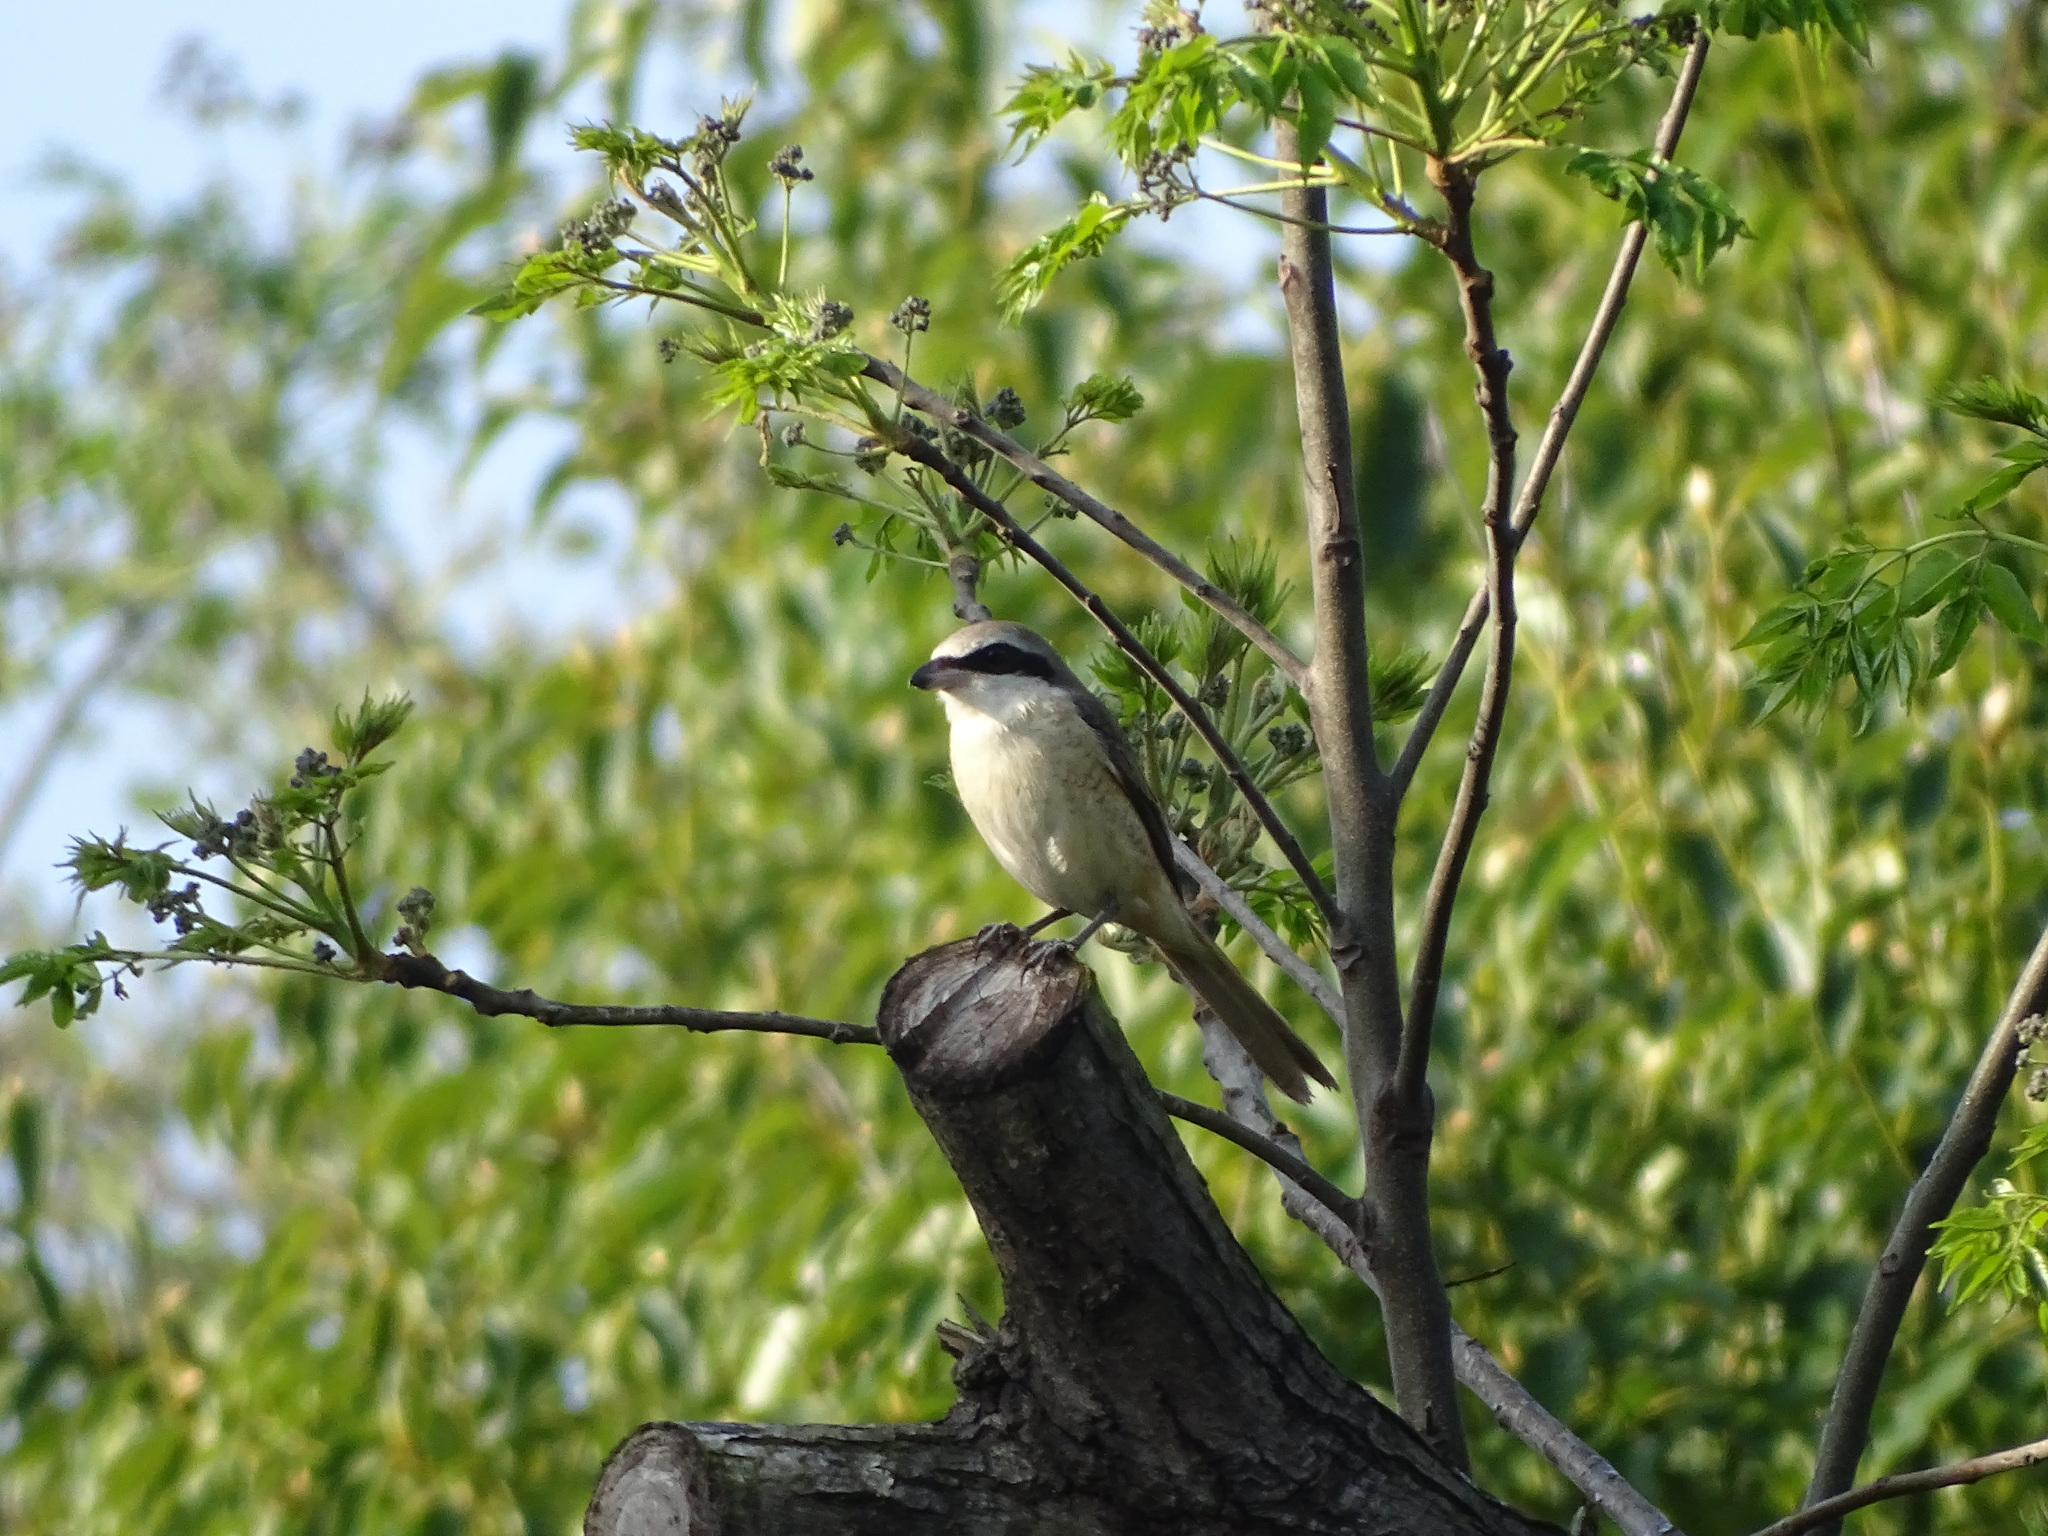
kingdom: Animalia
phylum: Chordata
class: Aves
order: Passeriformes
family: Laniidae
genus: Lanius
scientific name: Lanius cristatus
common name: Brown shrike
